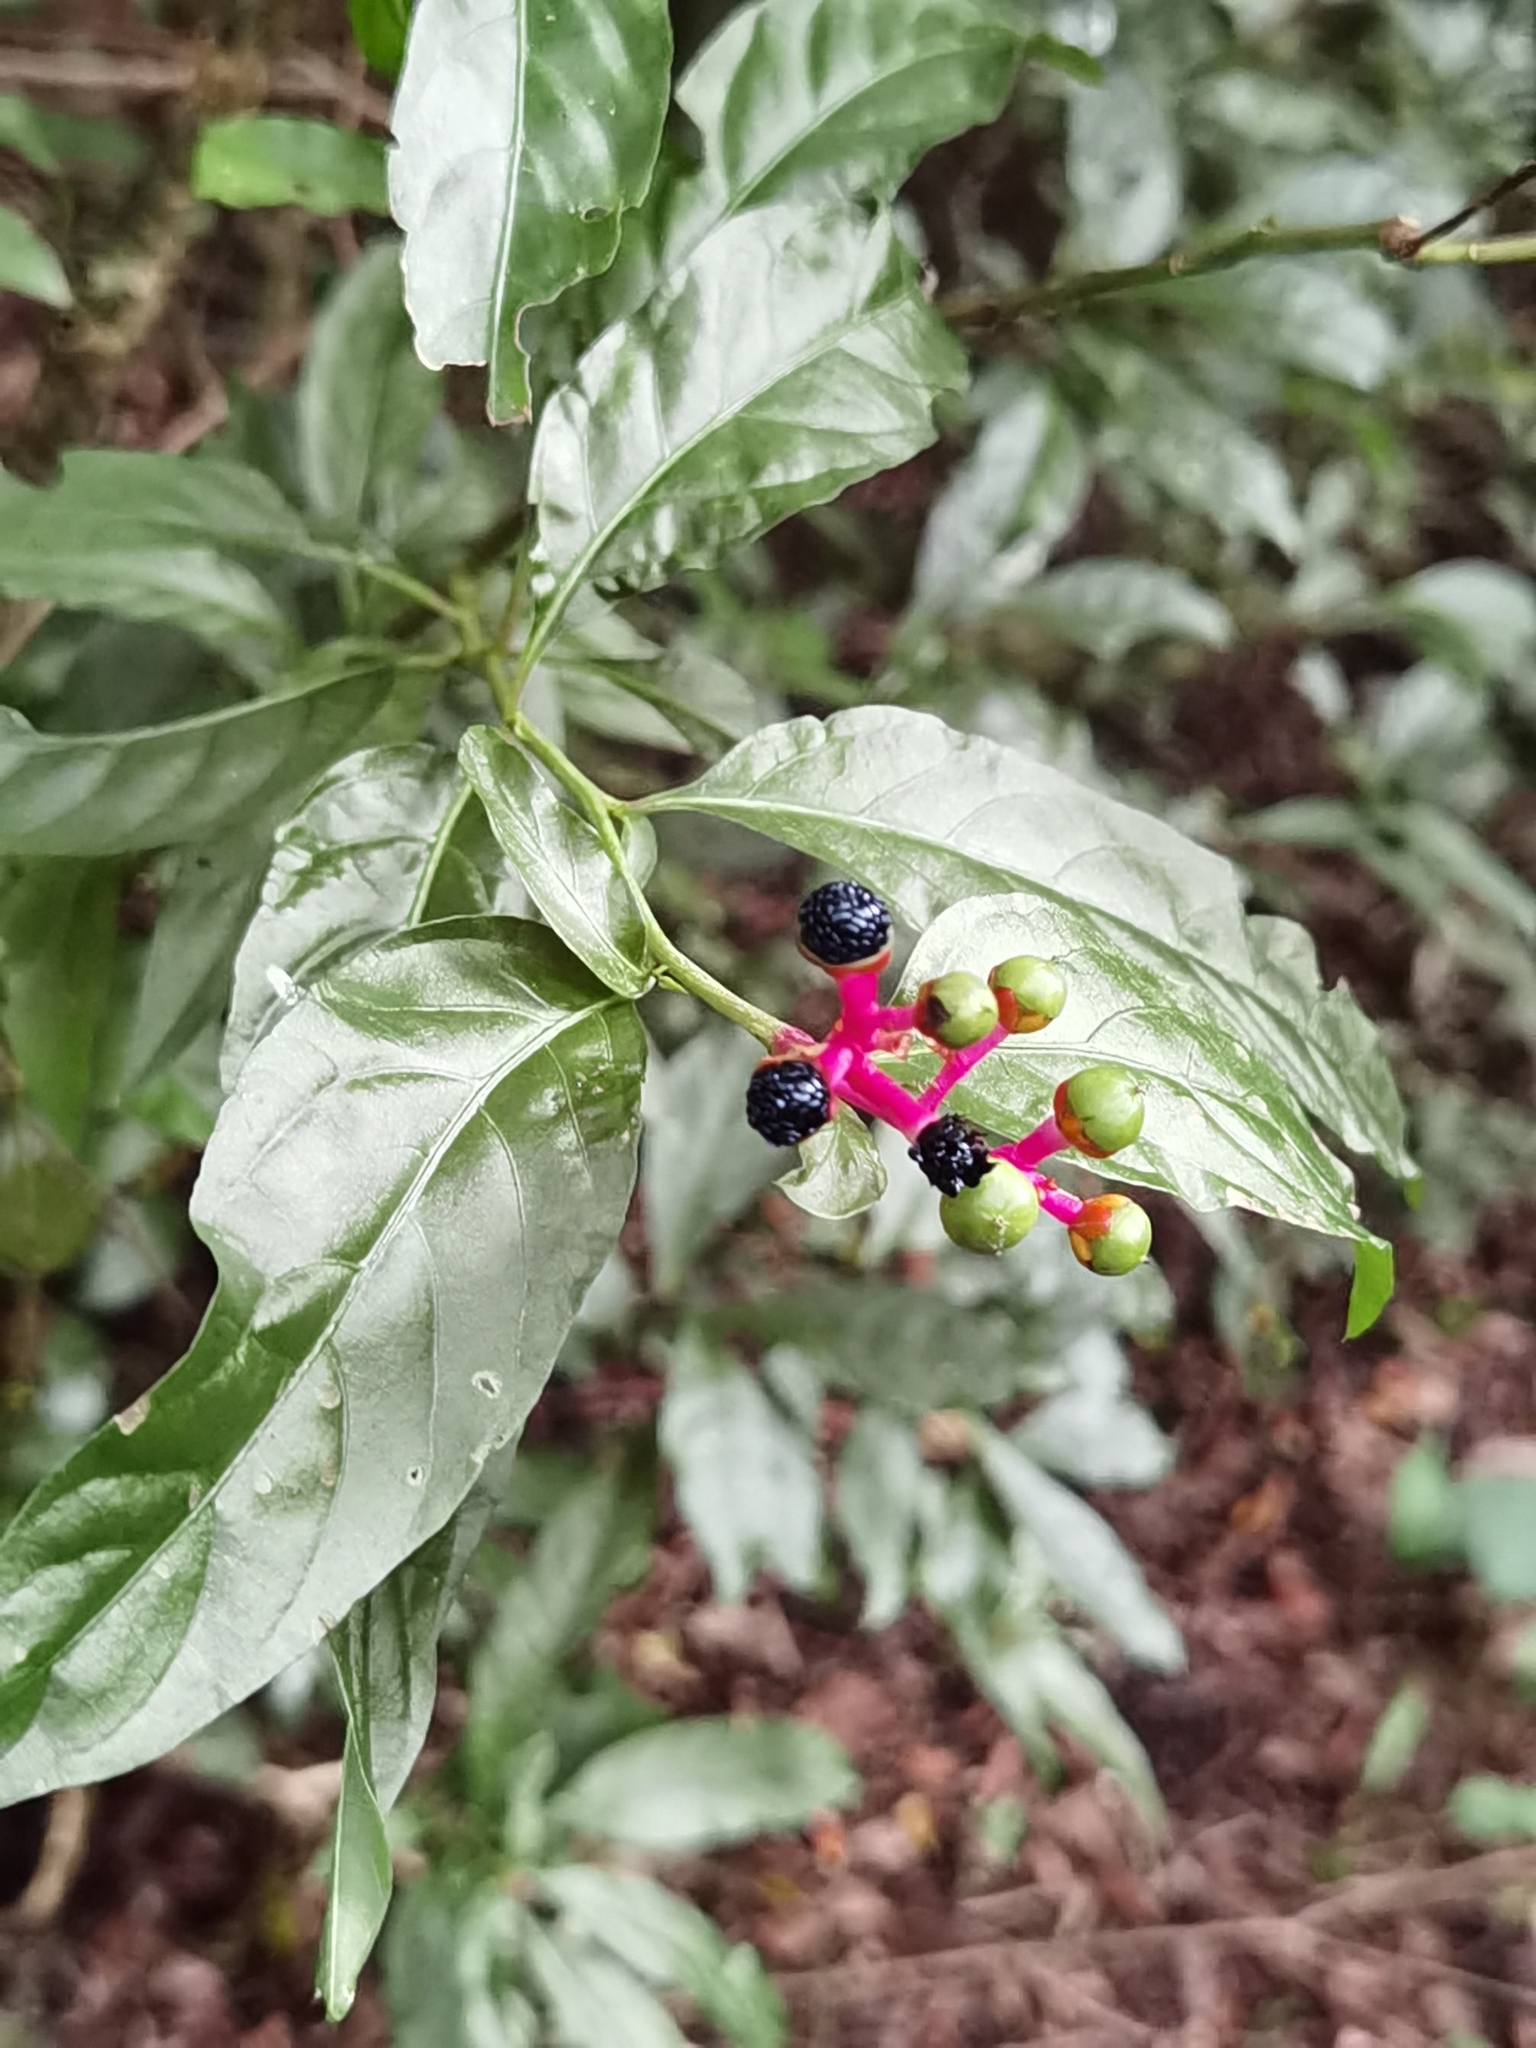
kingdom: Plantae
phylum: Tracheophyta
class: Magnoliopsida
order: Caryophyllales
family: Amaranthaceae
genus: Pleuropetalum
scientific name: Pleuropetalum sprucei
